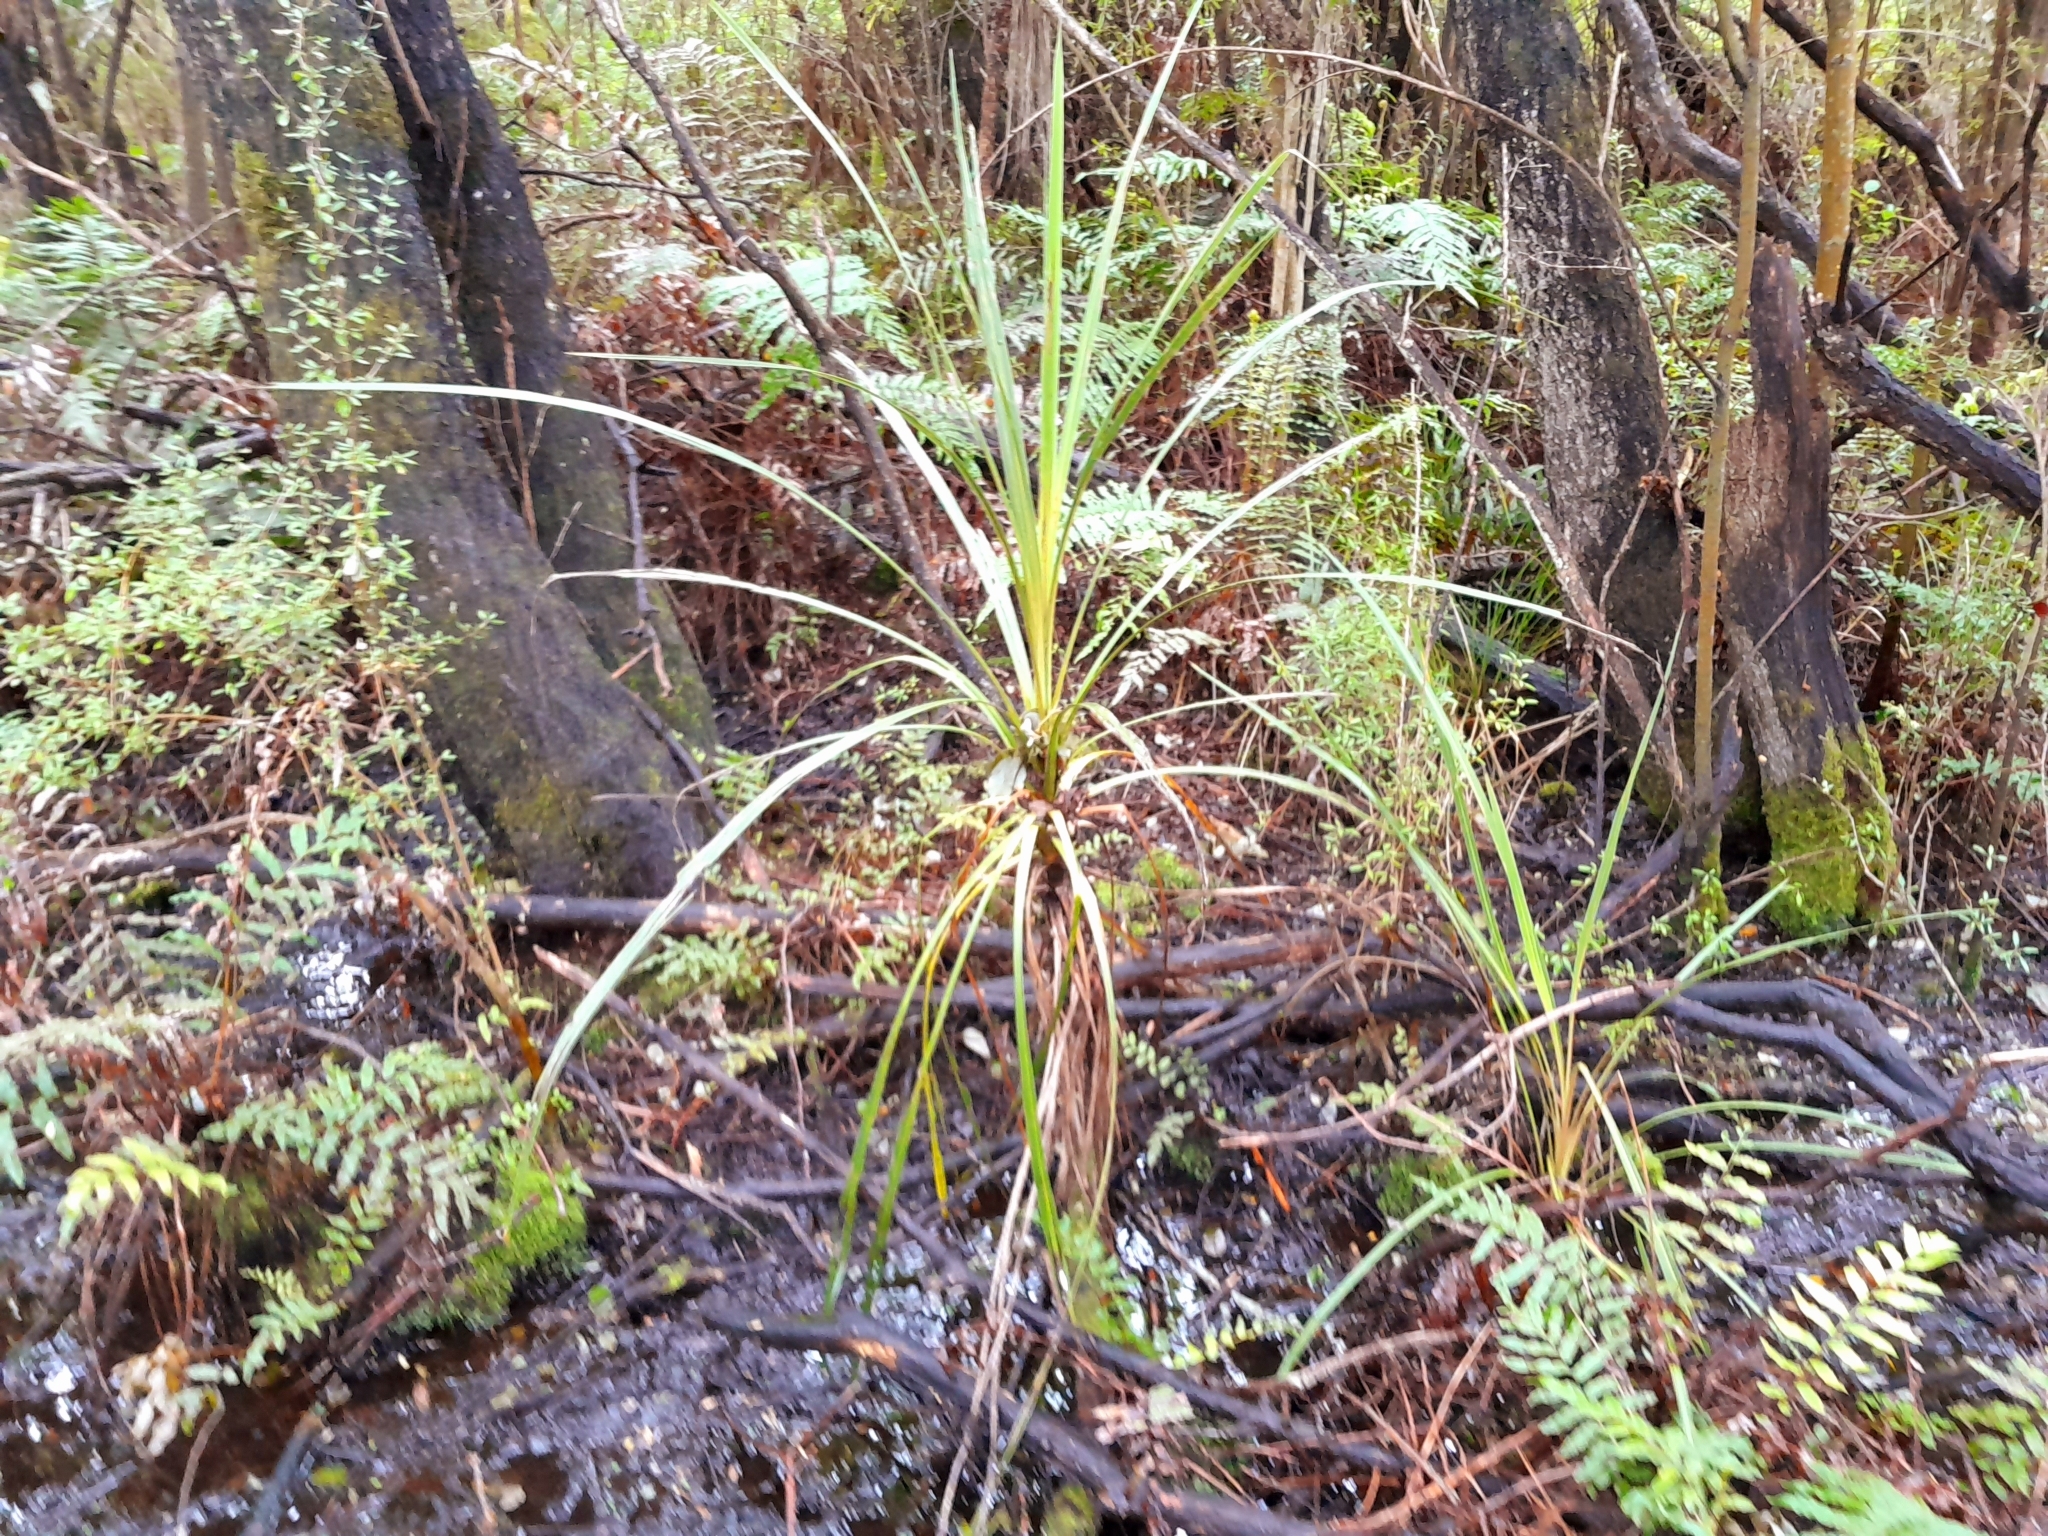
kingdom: Plantae
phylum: Tracheophyta
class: Liliopsida
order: Asparagales
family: Asparagaceae
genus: Cordyline
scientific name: Cordyline australis
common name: Cabbage-palm
